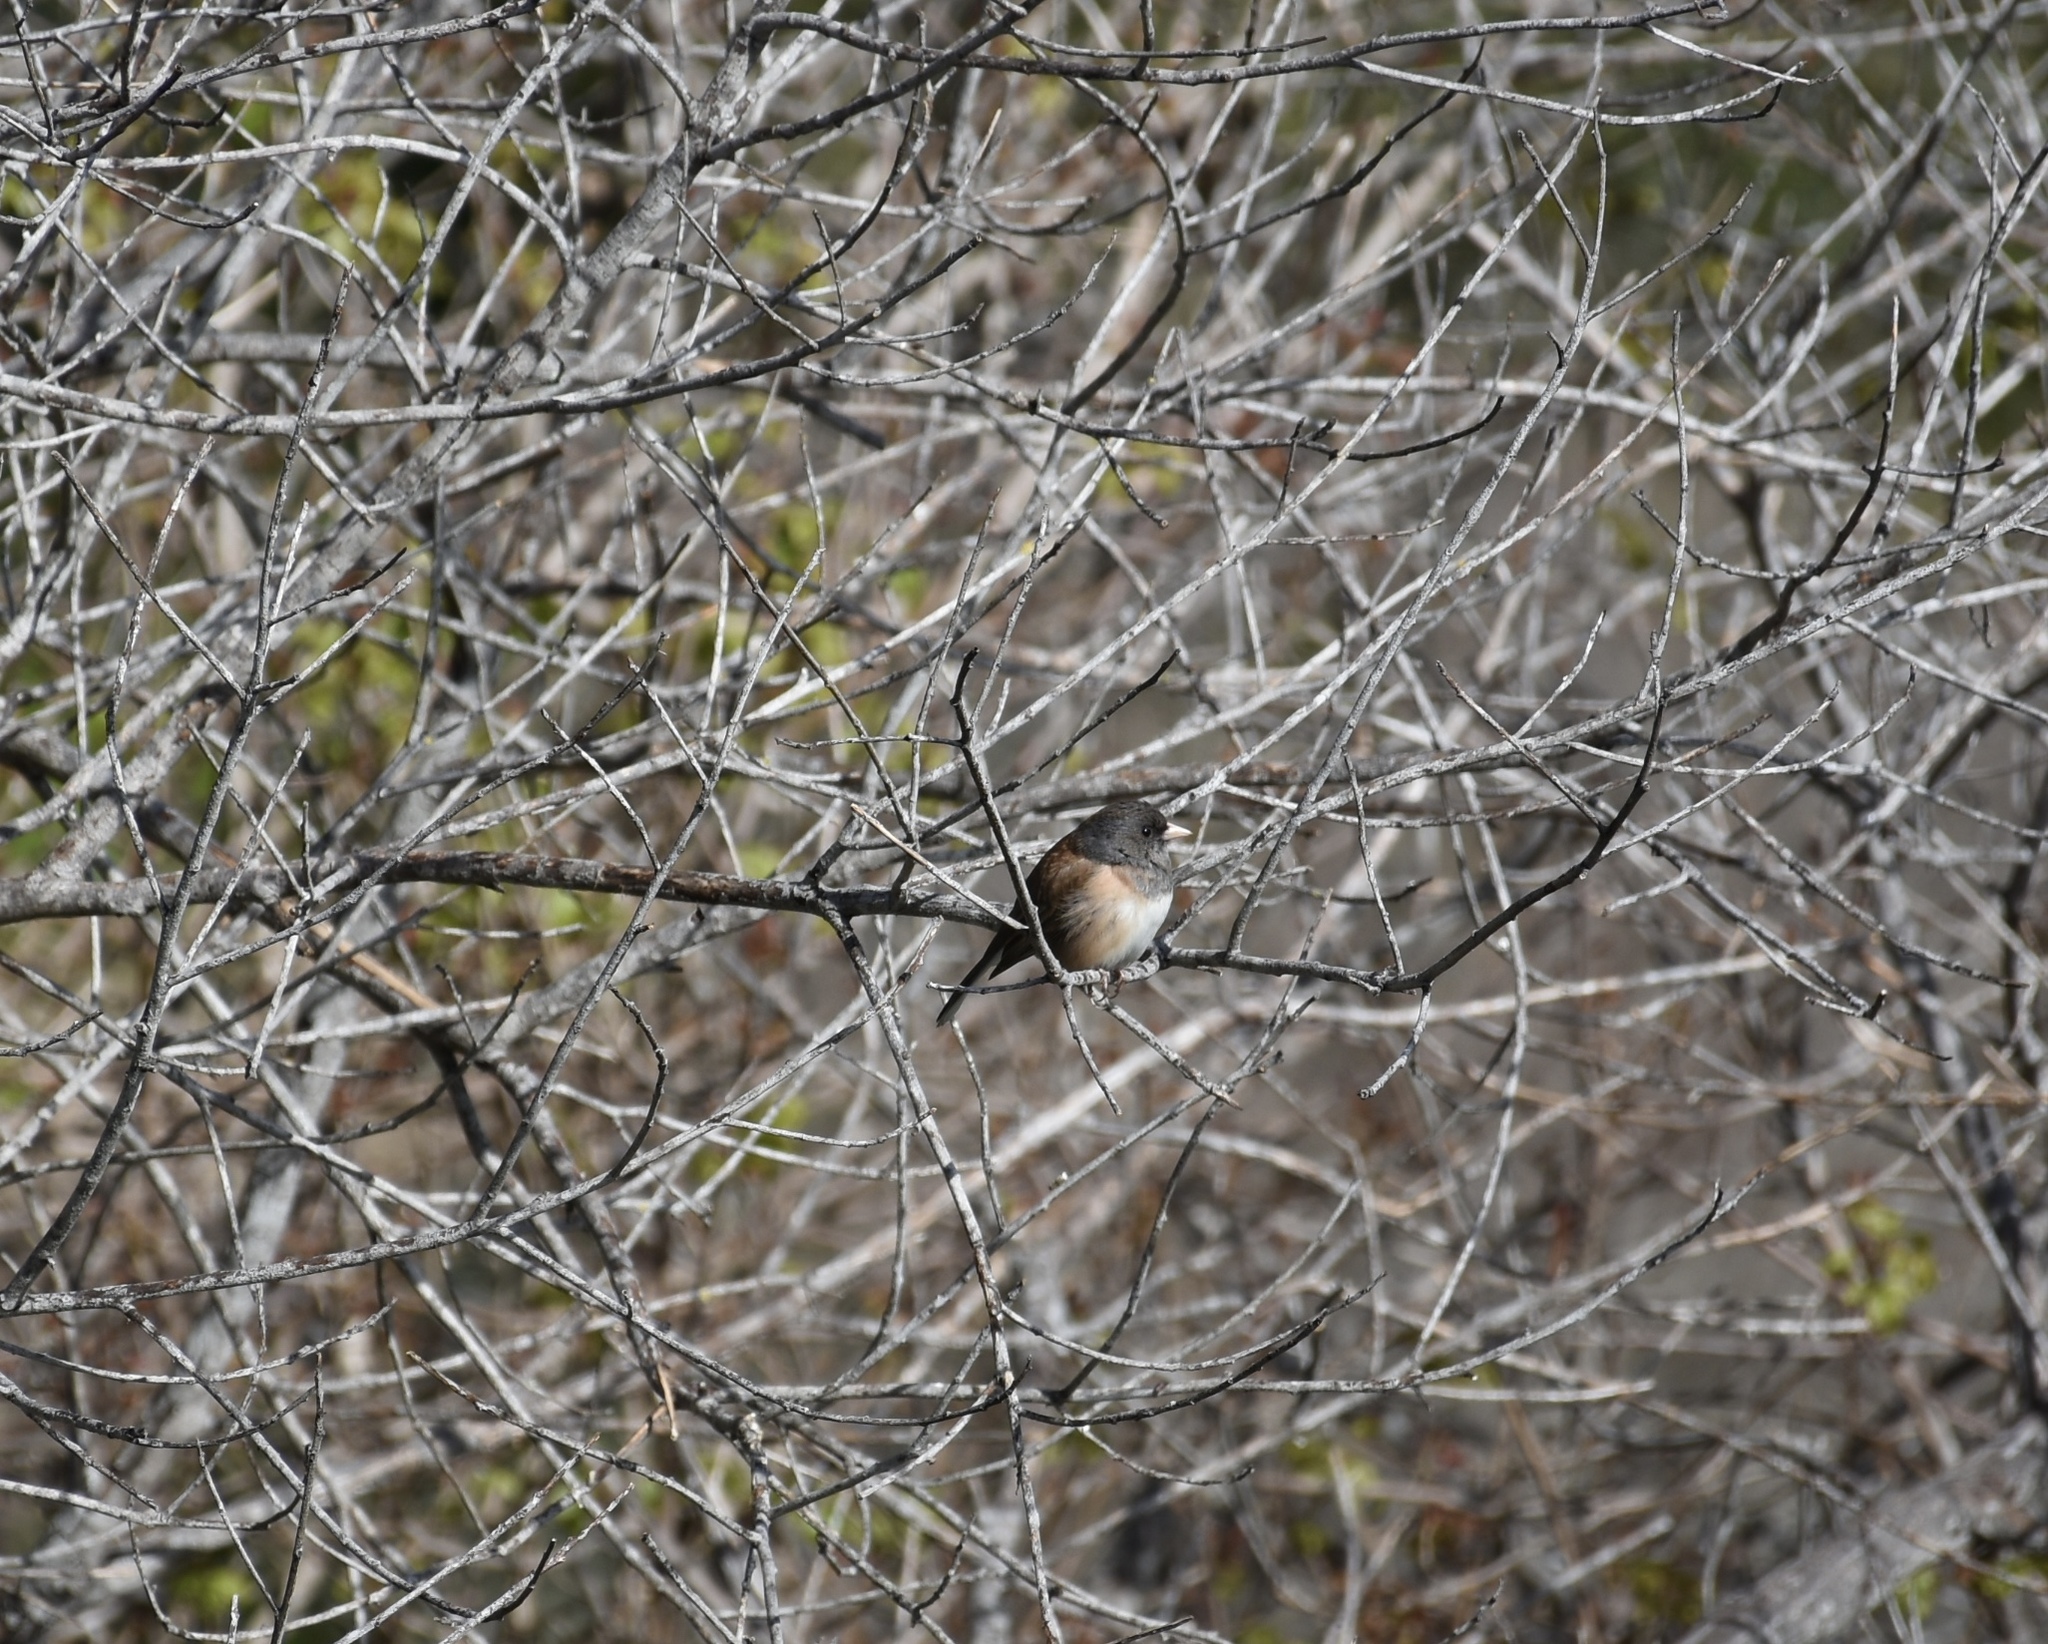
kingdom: Animalia
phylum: Chordata
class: Aves
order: Passeriformes
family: Passerellidae
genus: Junco
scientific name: Junco hyemalis
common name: Dark-eyed junco
